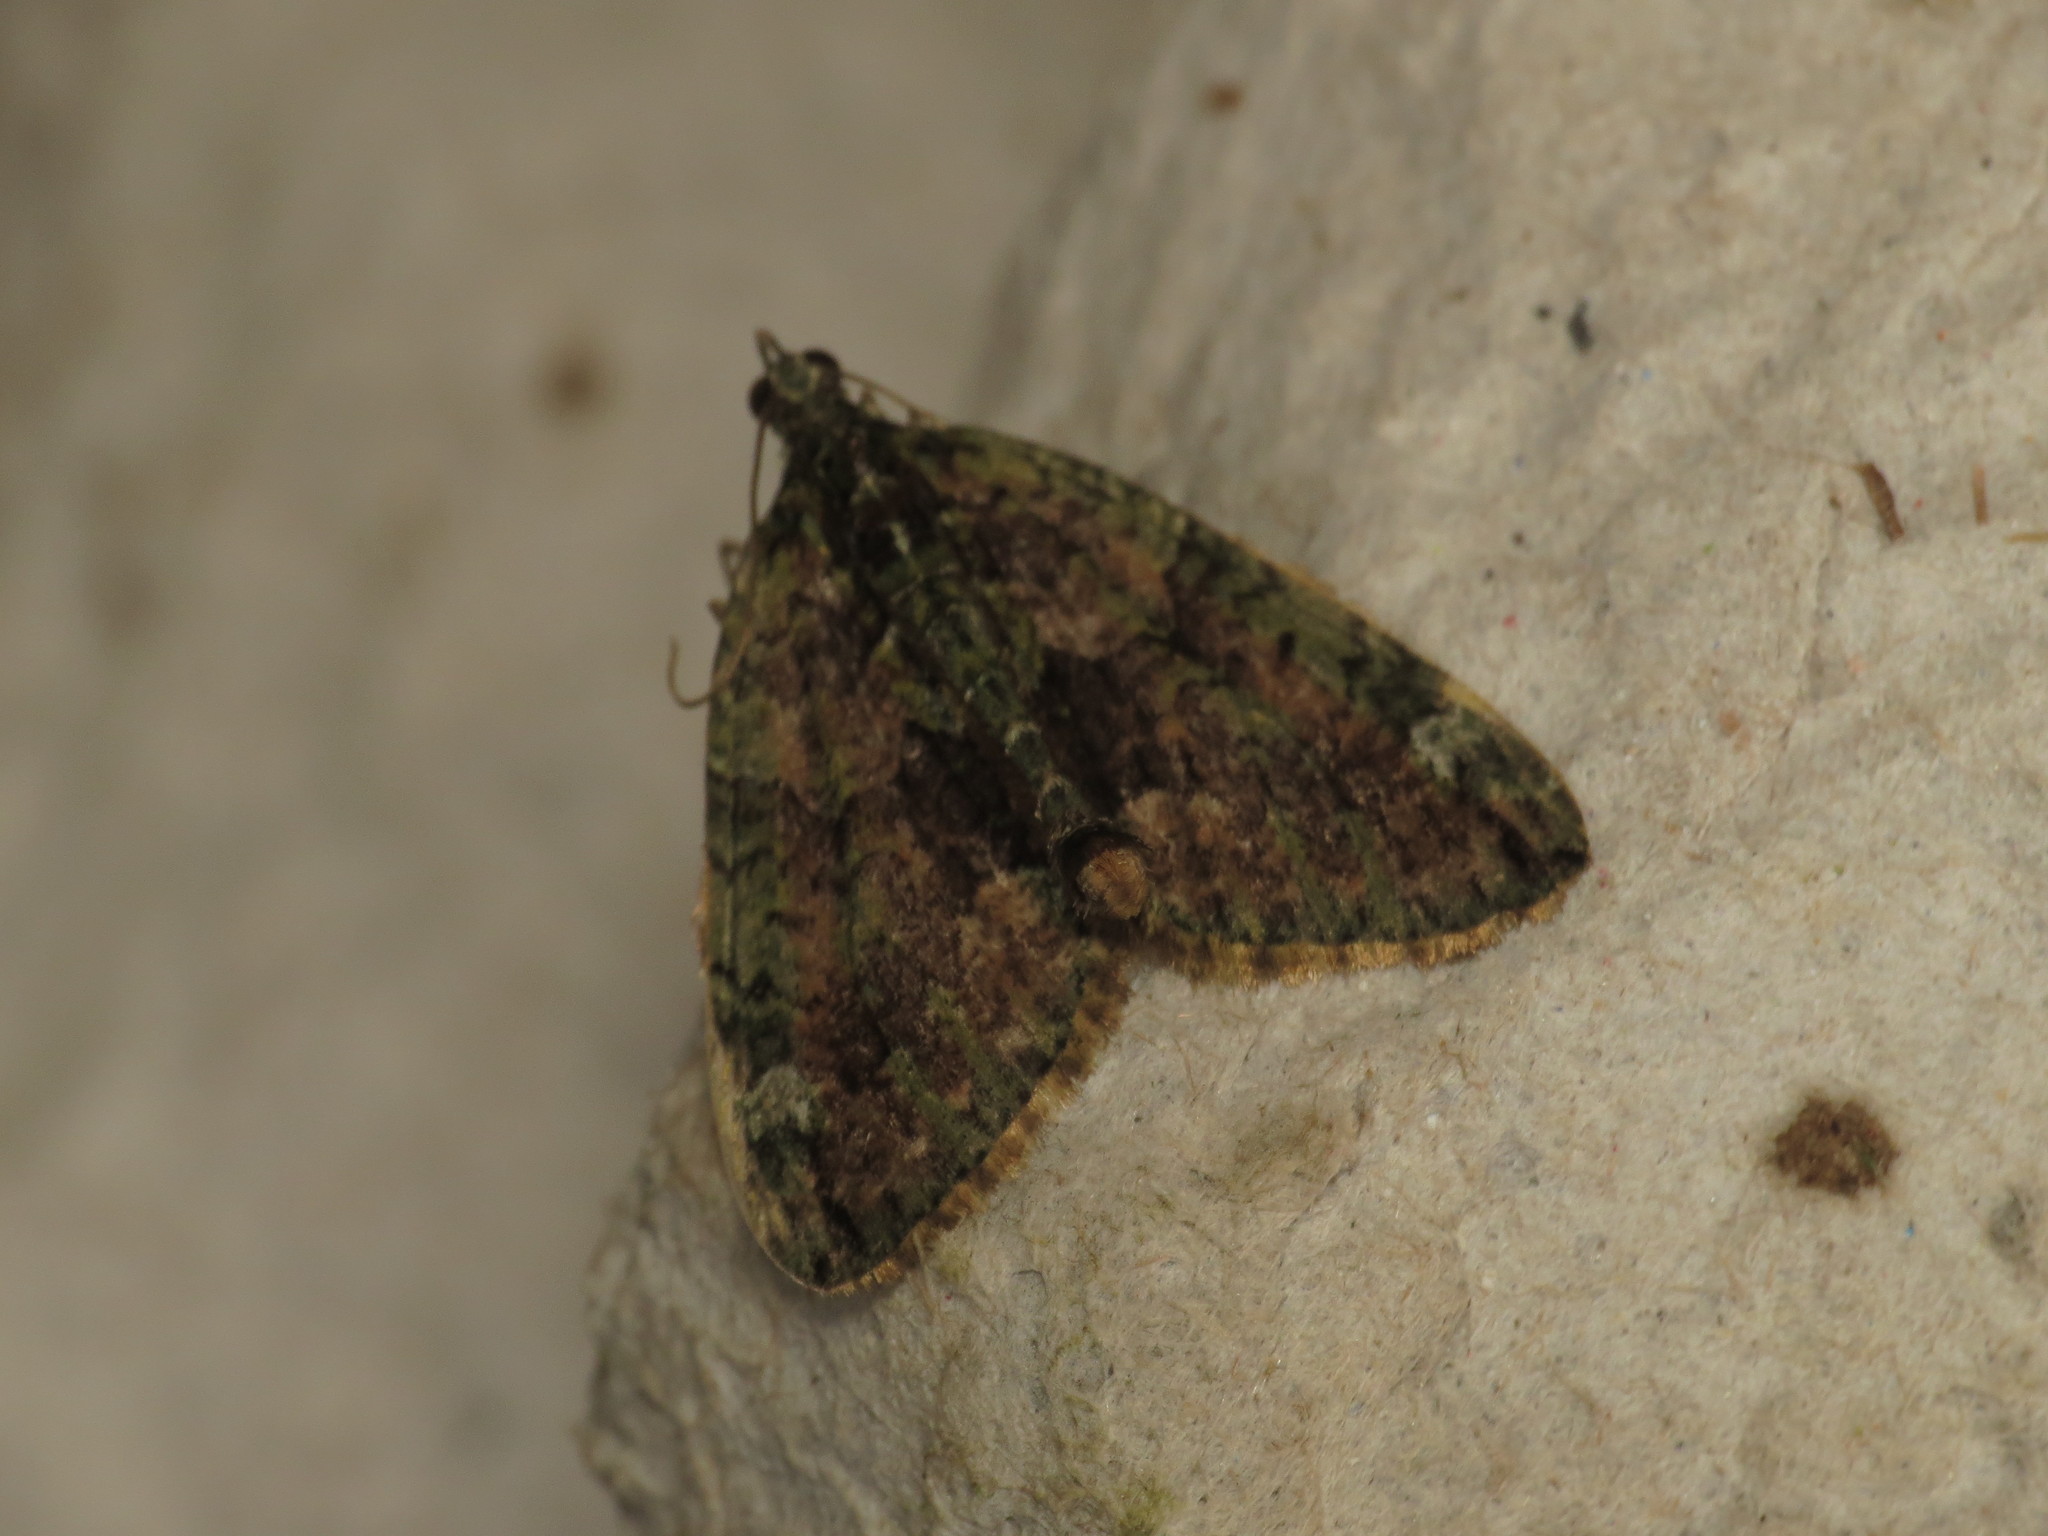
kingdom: Animalia
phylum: Arthropoda
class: Insecta
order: Lepidoptera
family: Geometridae
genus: Chloroclysta
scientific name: Chloroclysta siterata
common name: Red-green carpet
